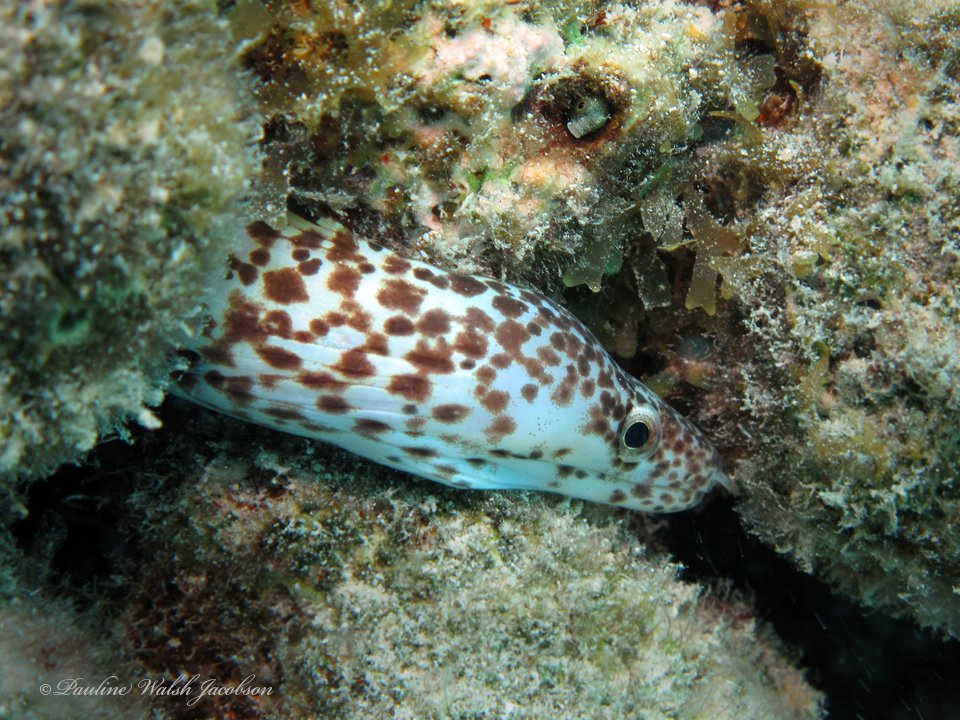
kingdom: Animalia
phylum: Chordata
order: Anguilliformes
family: Muraenidae
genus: Gymnothorax
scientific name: Gymnothorax moringa
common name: Spotted moray
